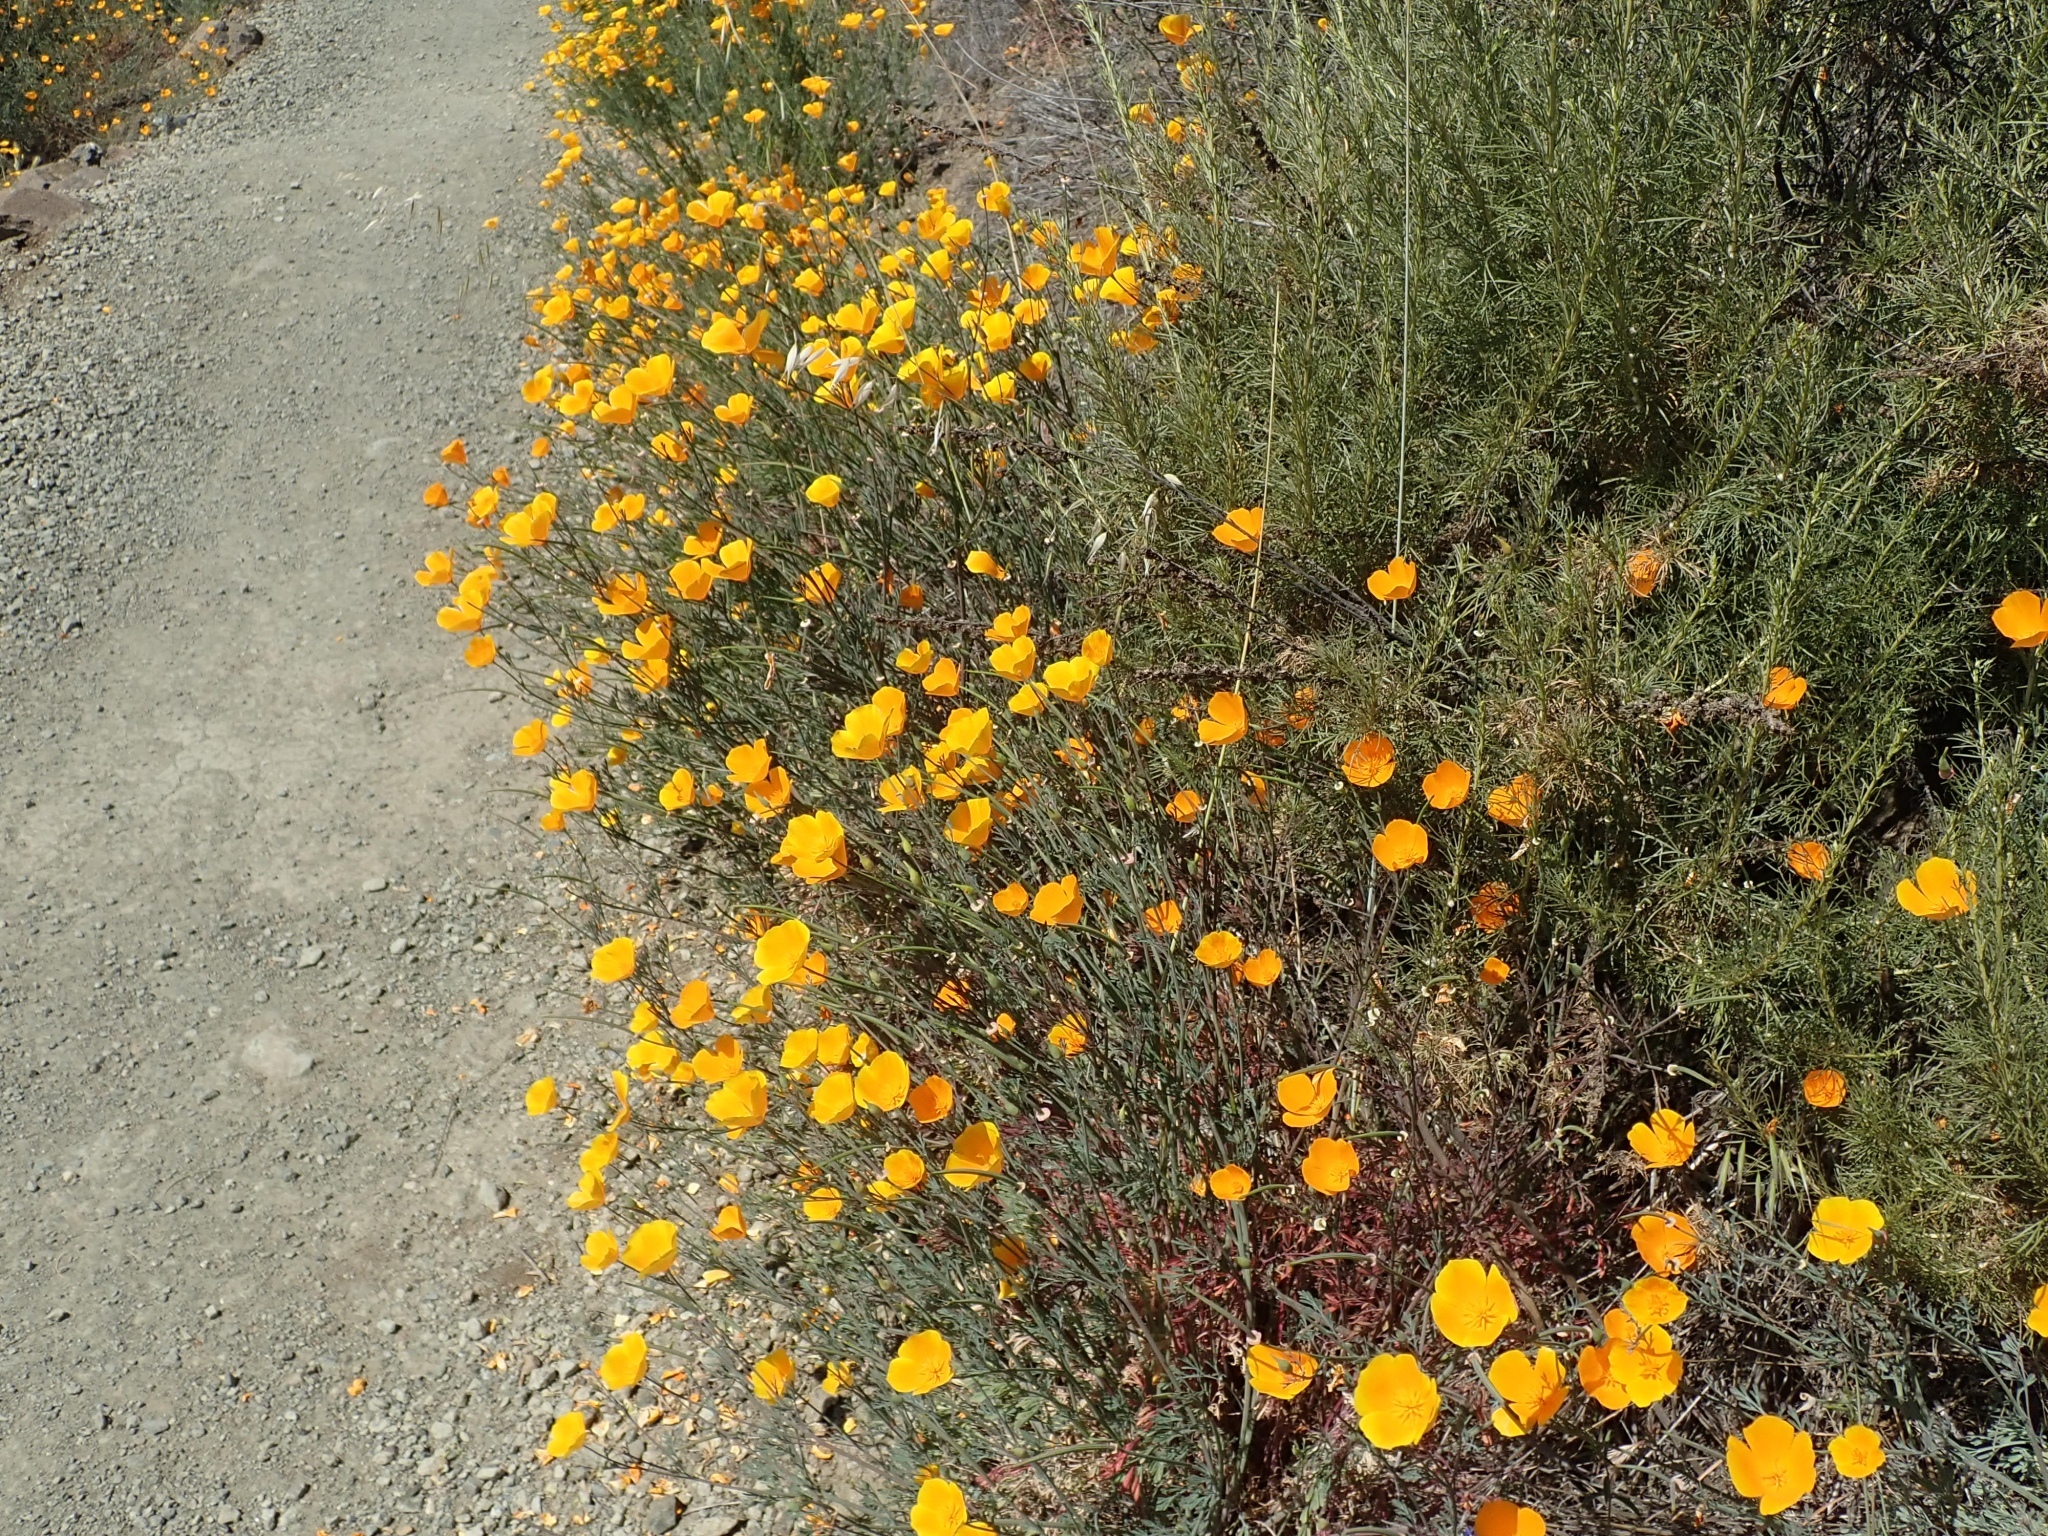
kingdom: Plantae
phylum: Tracheophyta
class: Magnoliopsida
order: Ranunculales
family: Papaveraceae
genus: Eschscholzia
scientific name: Eschscholzia californica
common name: California poppy
